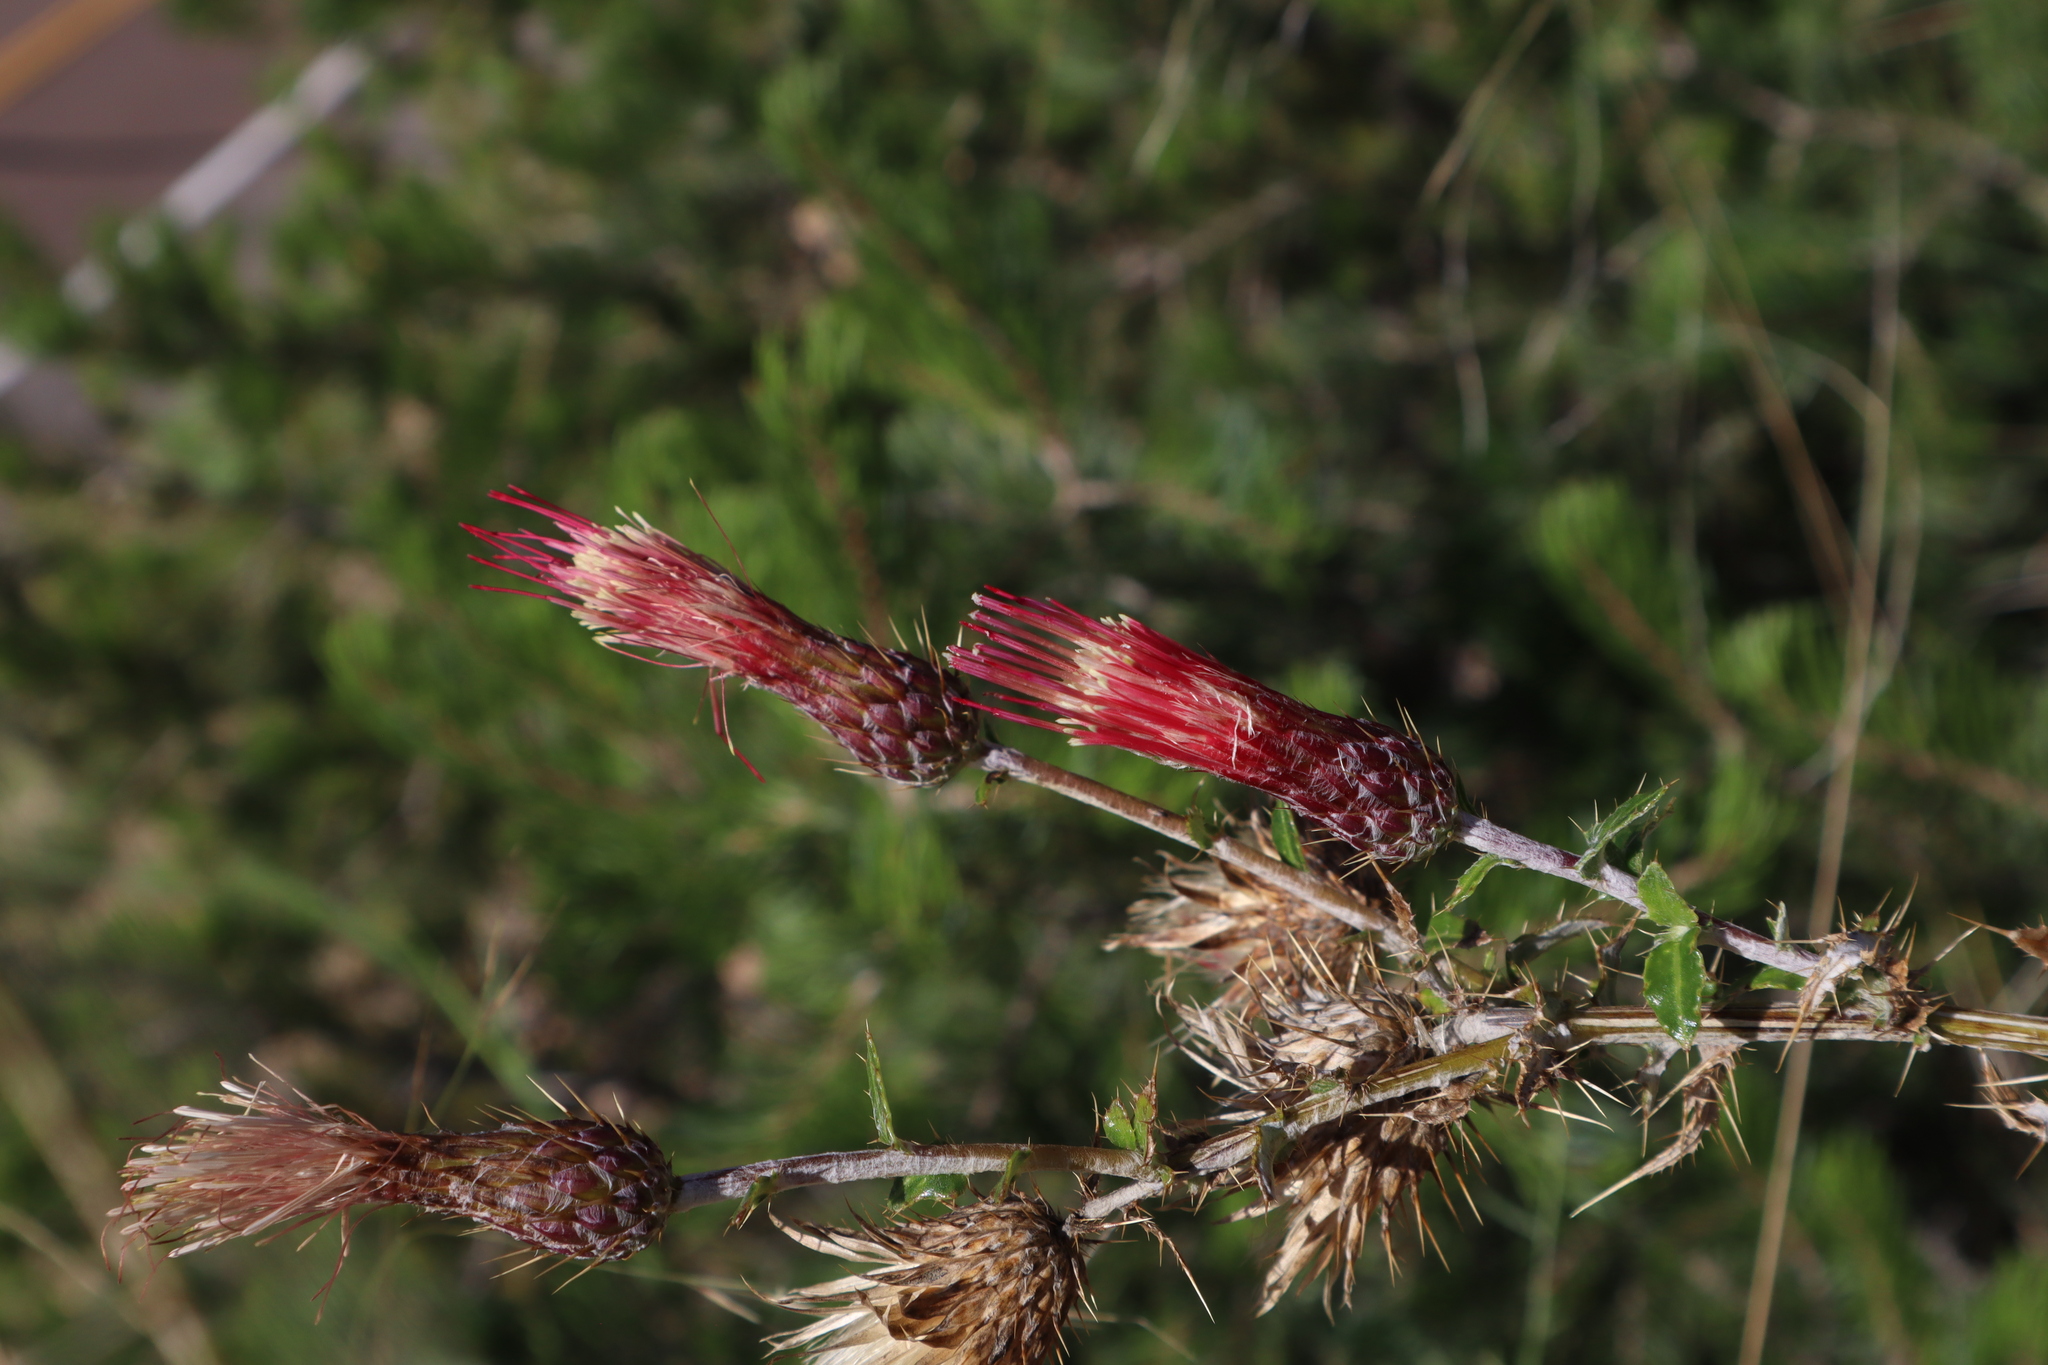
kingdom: Plantae
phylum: Tracheophyta
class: Magnoliopsida
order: Asterales
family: Asteraceae
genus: Cirsium
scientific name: Cirsium arizonicum
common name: Arizona thistle
